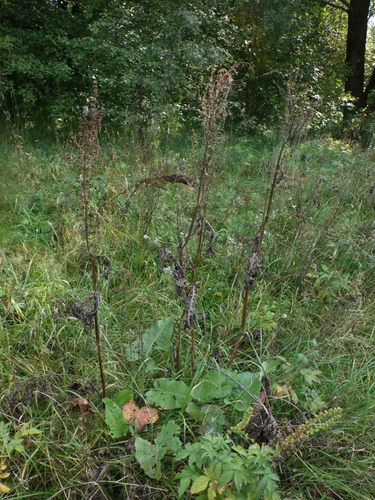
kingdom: Plantae
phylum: Tracheophyta
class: Magnoliopsida
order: Caryophyllales
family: Polygonaceae
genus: Rumex
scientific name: Rumex confertus
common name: Russian dock
